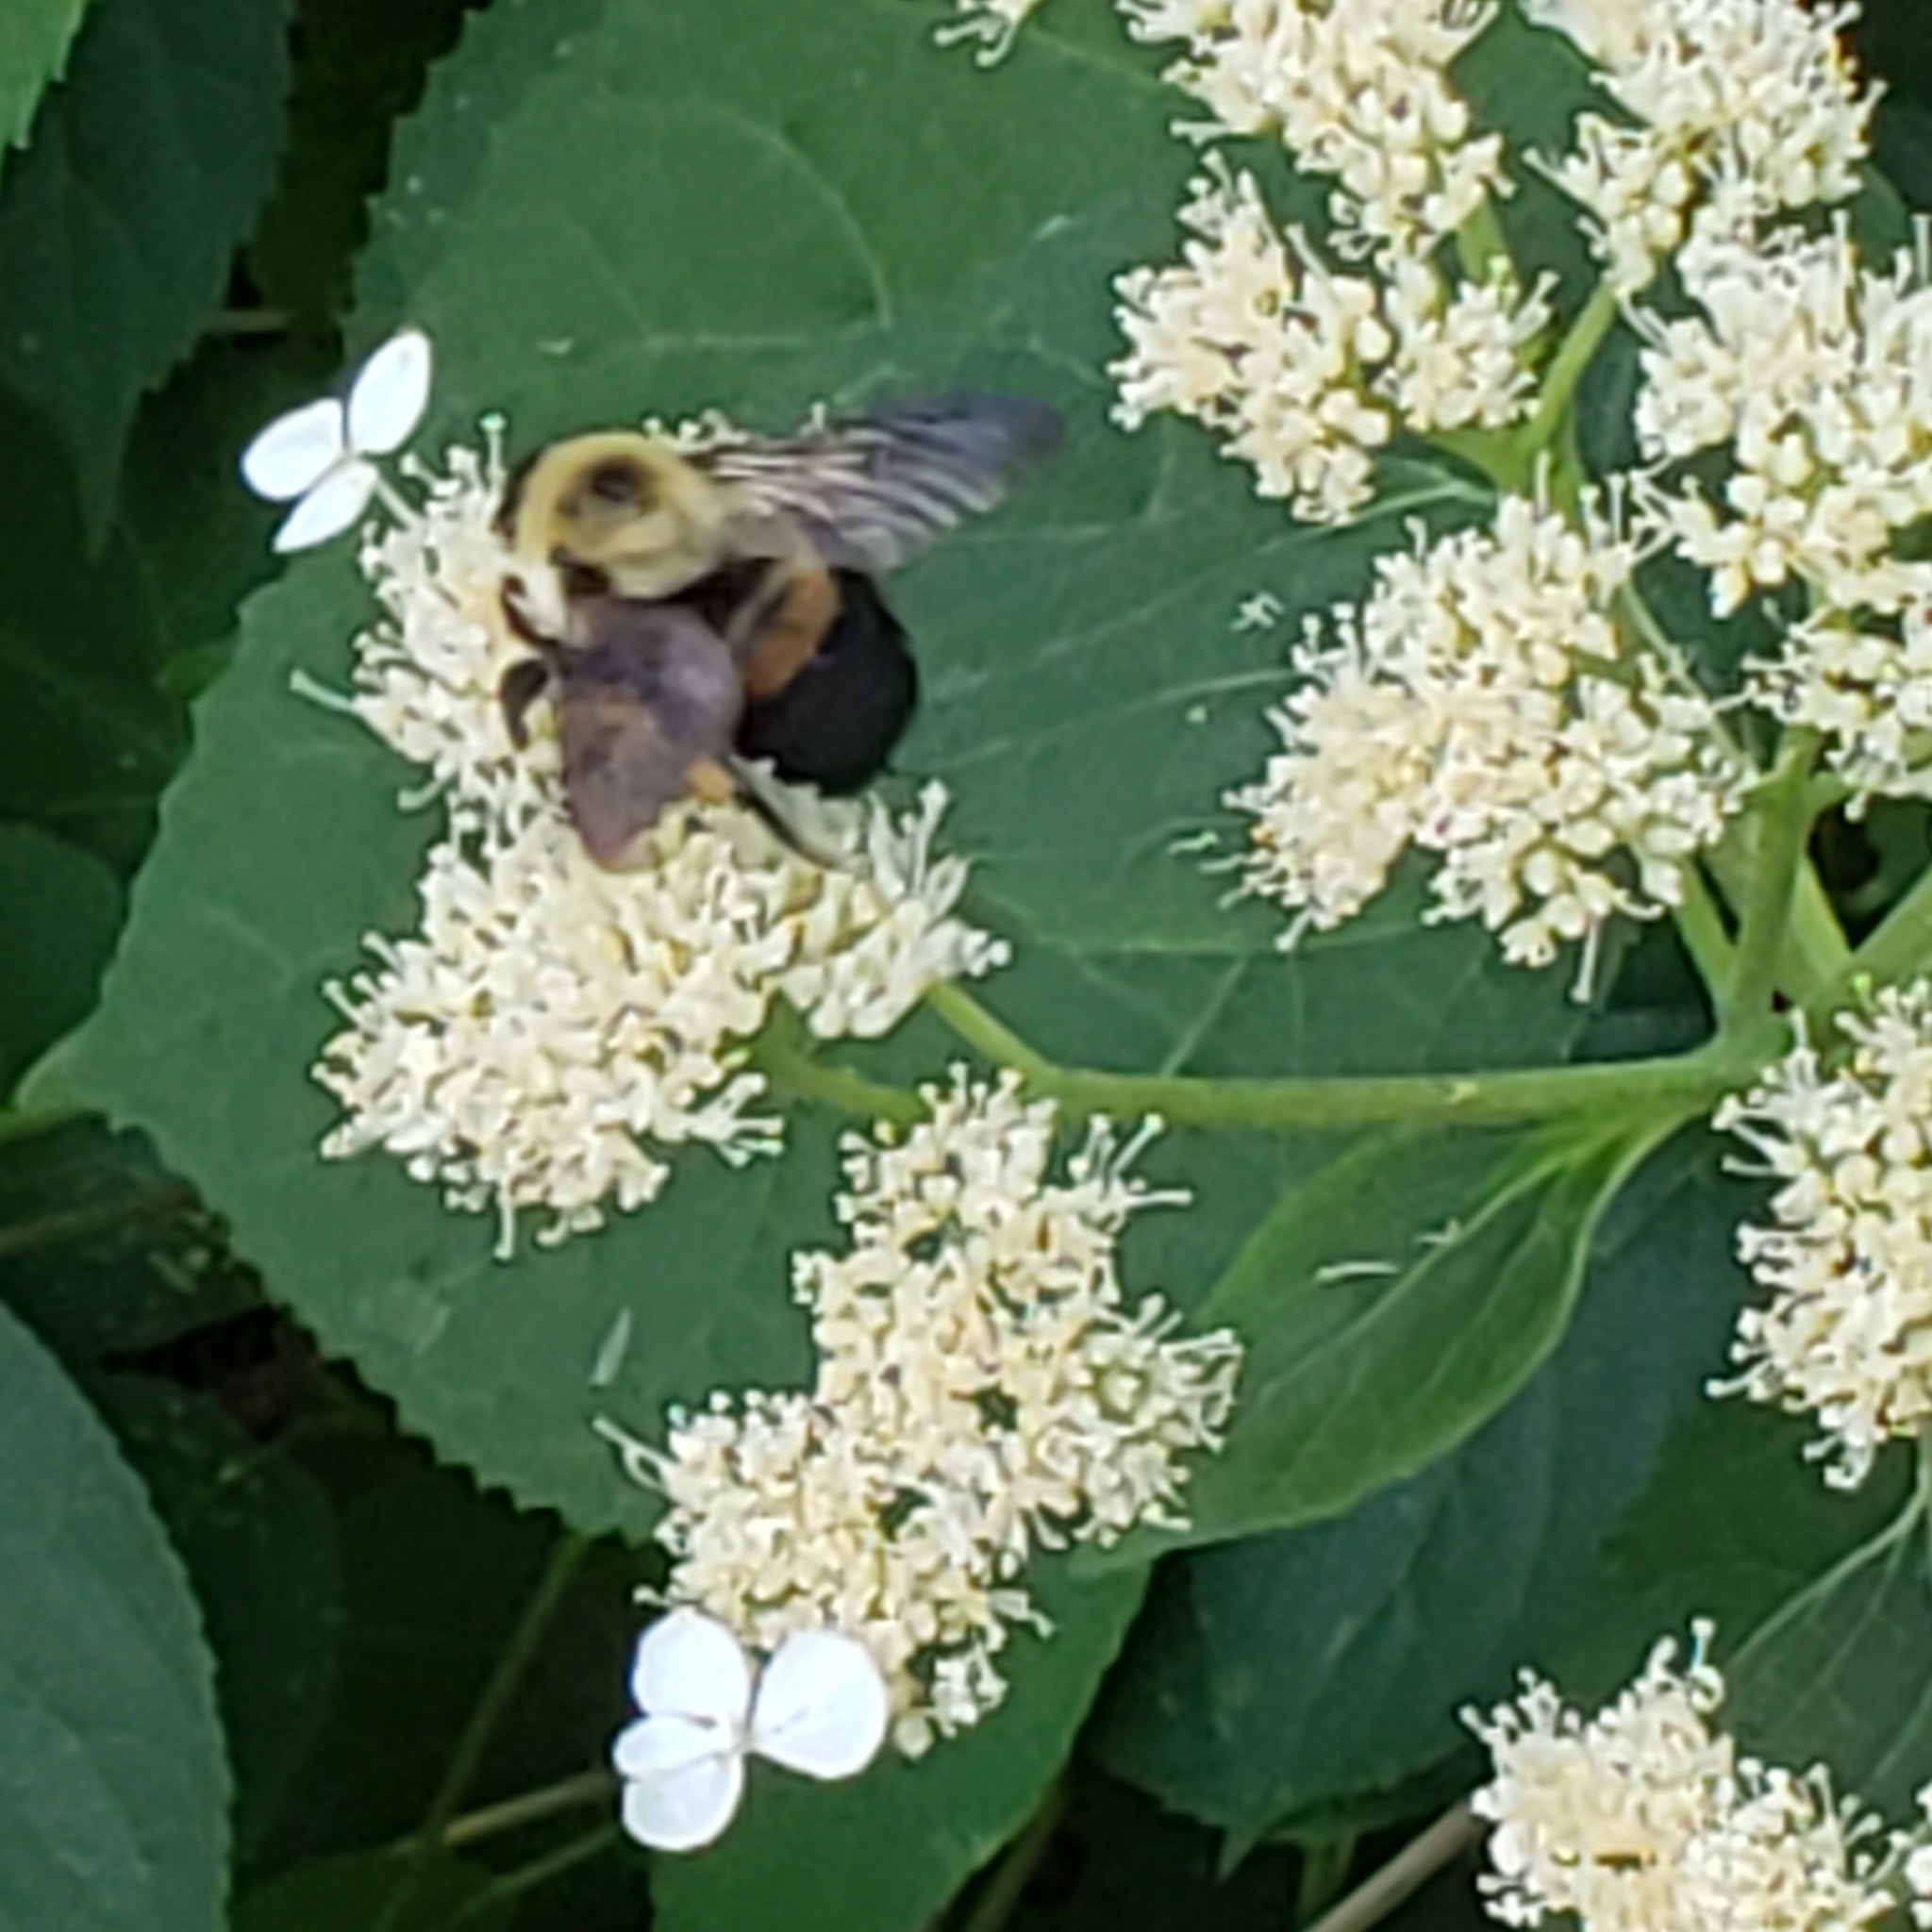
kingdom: Animalia
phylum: Arthropoda
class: Insecta
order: Hymenoptera
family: Apidae
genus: Bombus
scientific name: Bombus griseocollis
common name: Brown-belted bumble bee
